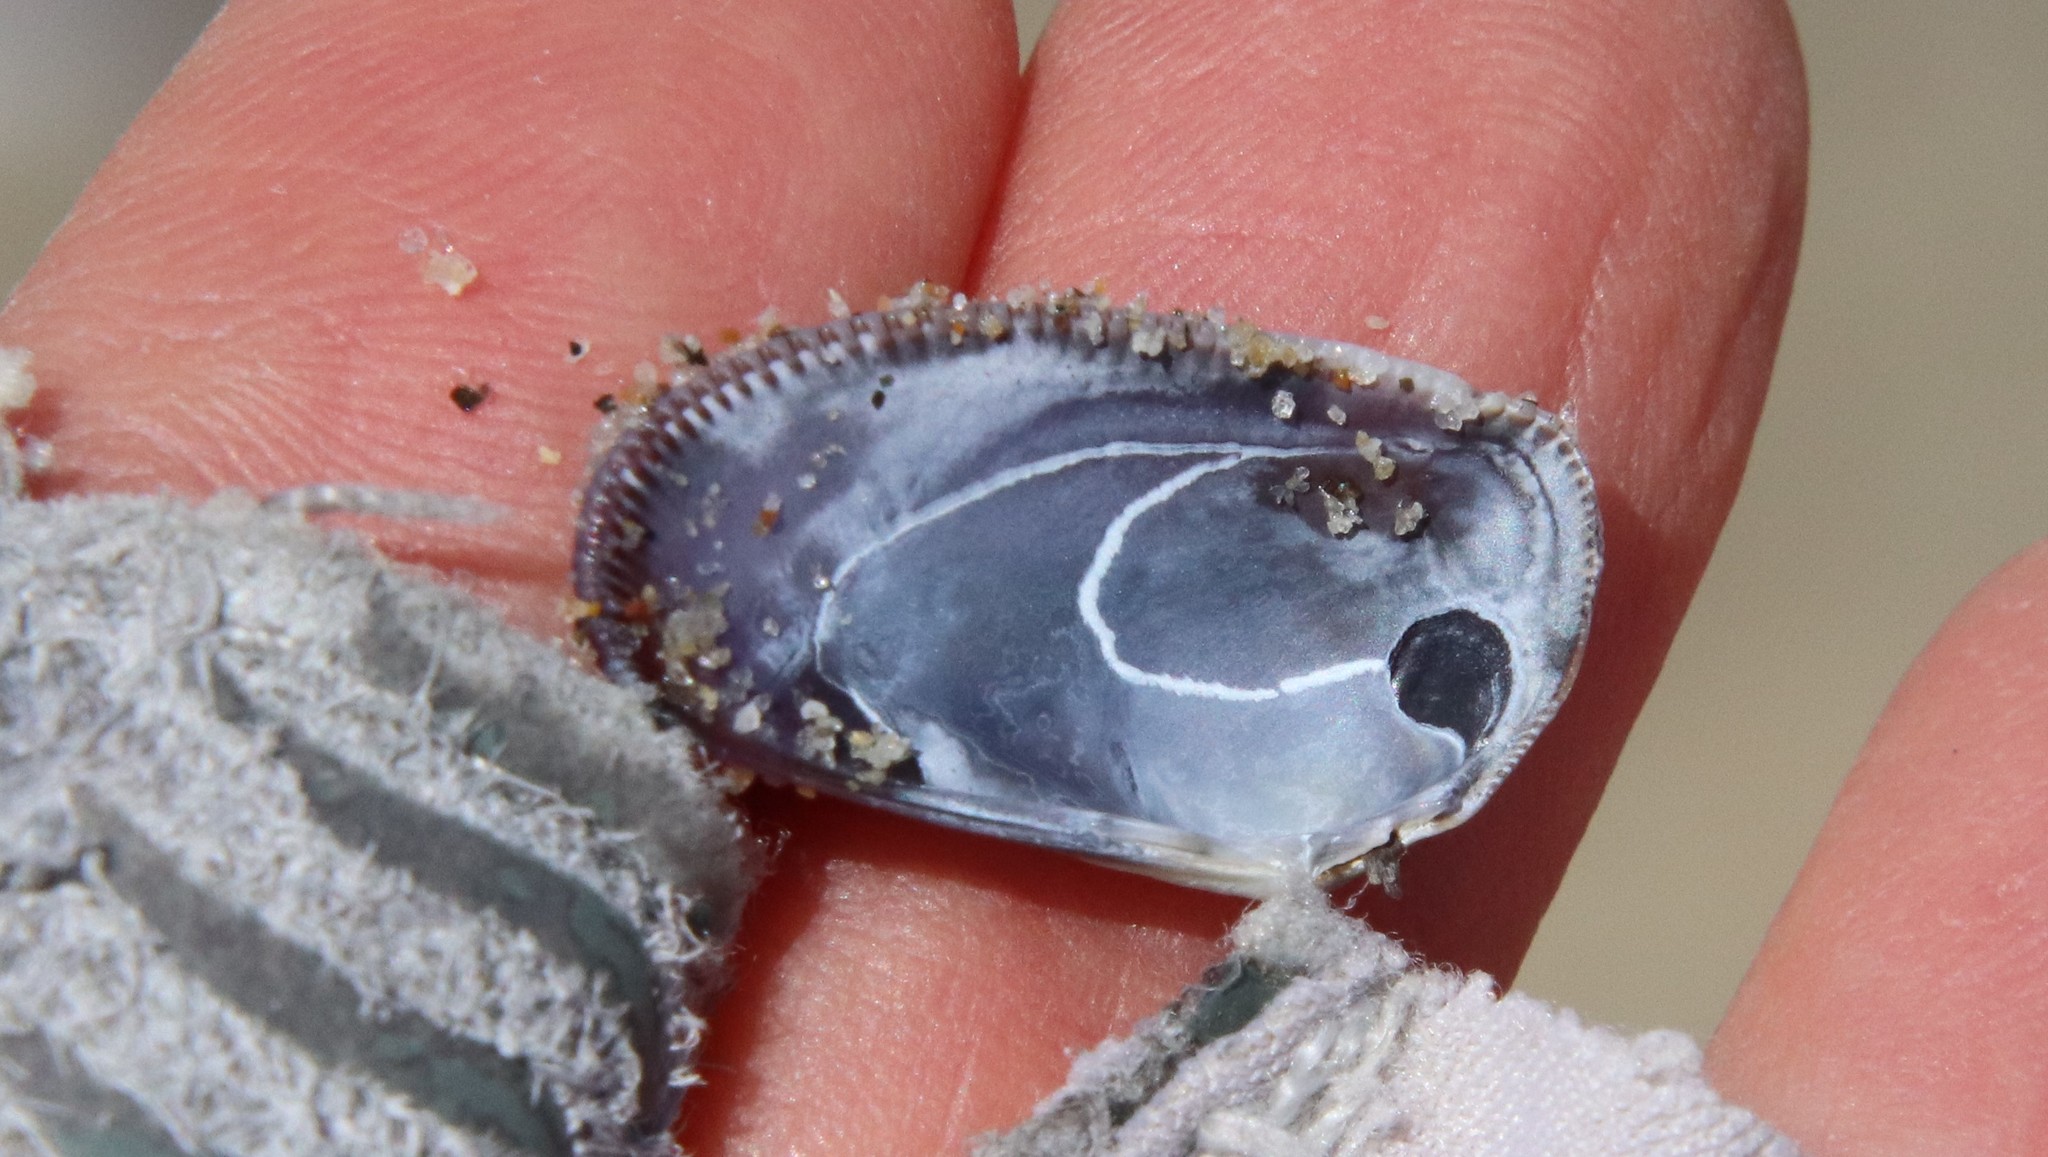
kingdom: Animalia
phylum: Mollusca
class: Bivalvia
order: Cardiida
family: Donacidae
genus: Donax
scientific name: Donax gouldii
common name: Gould beanclam
